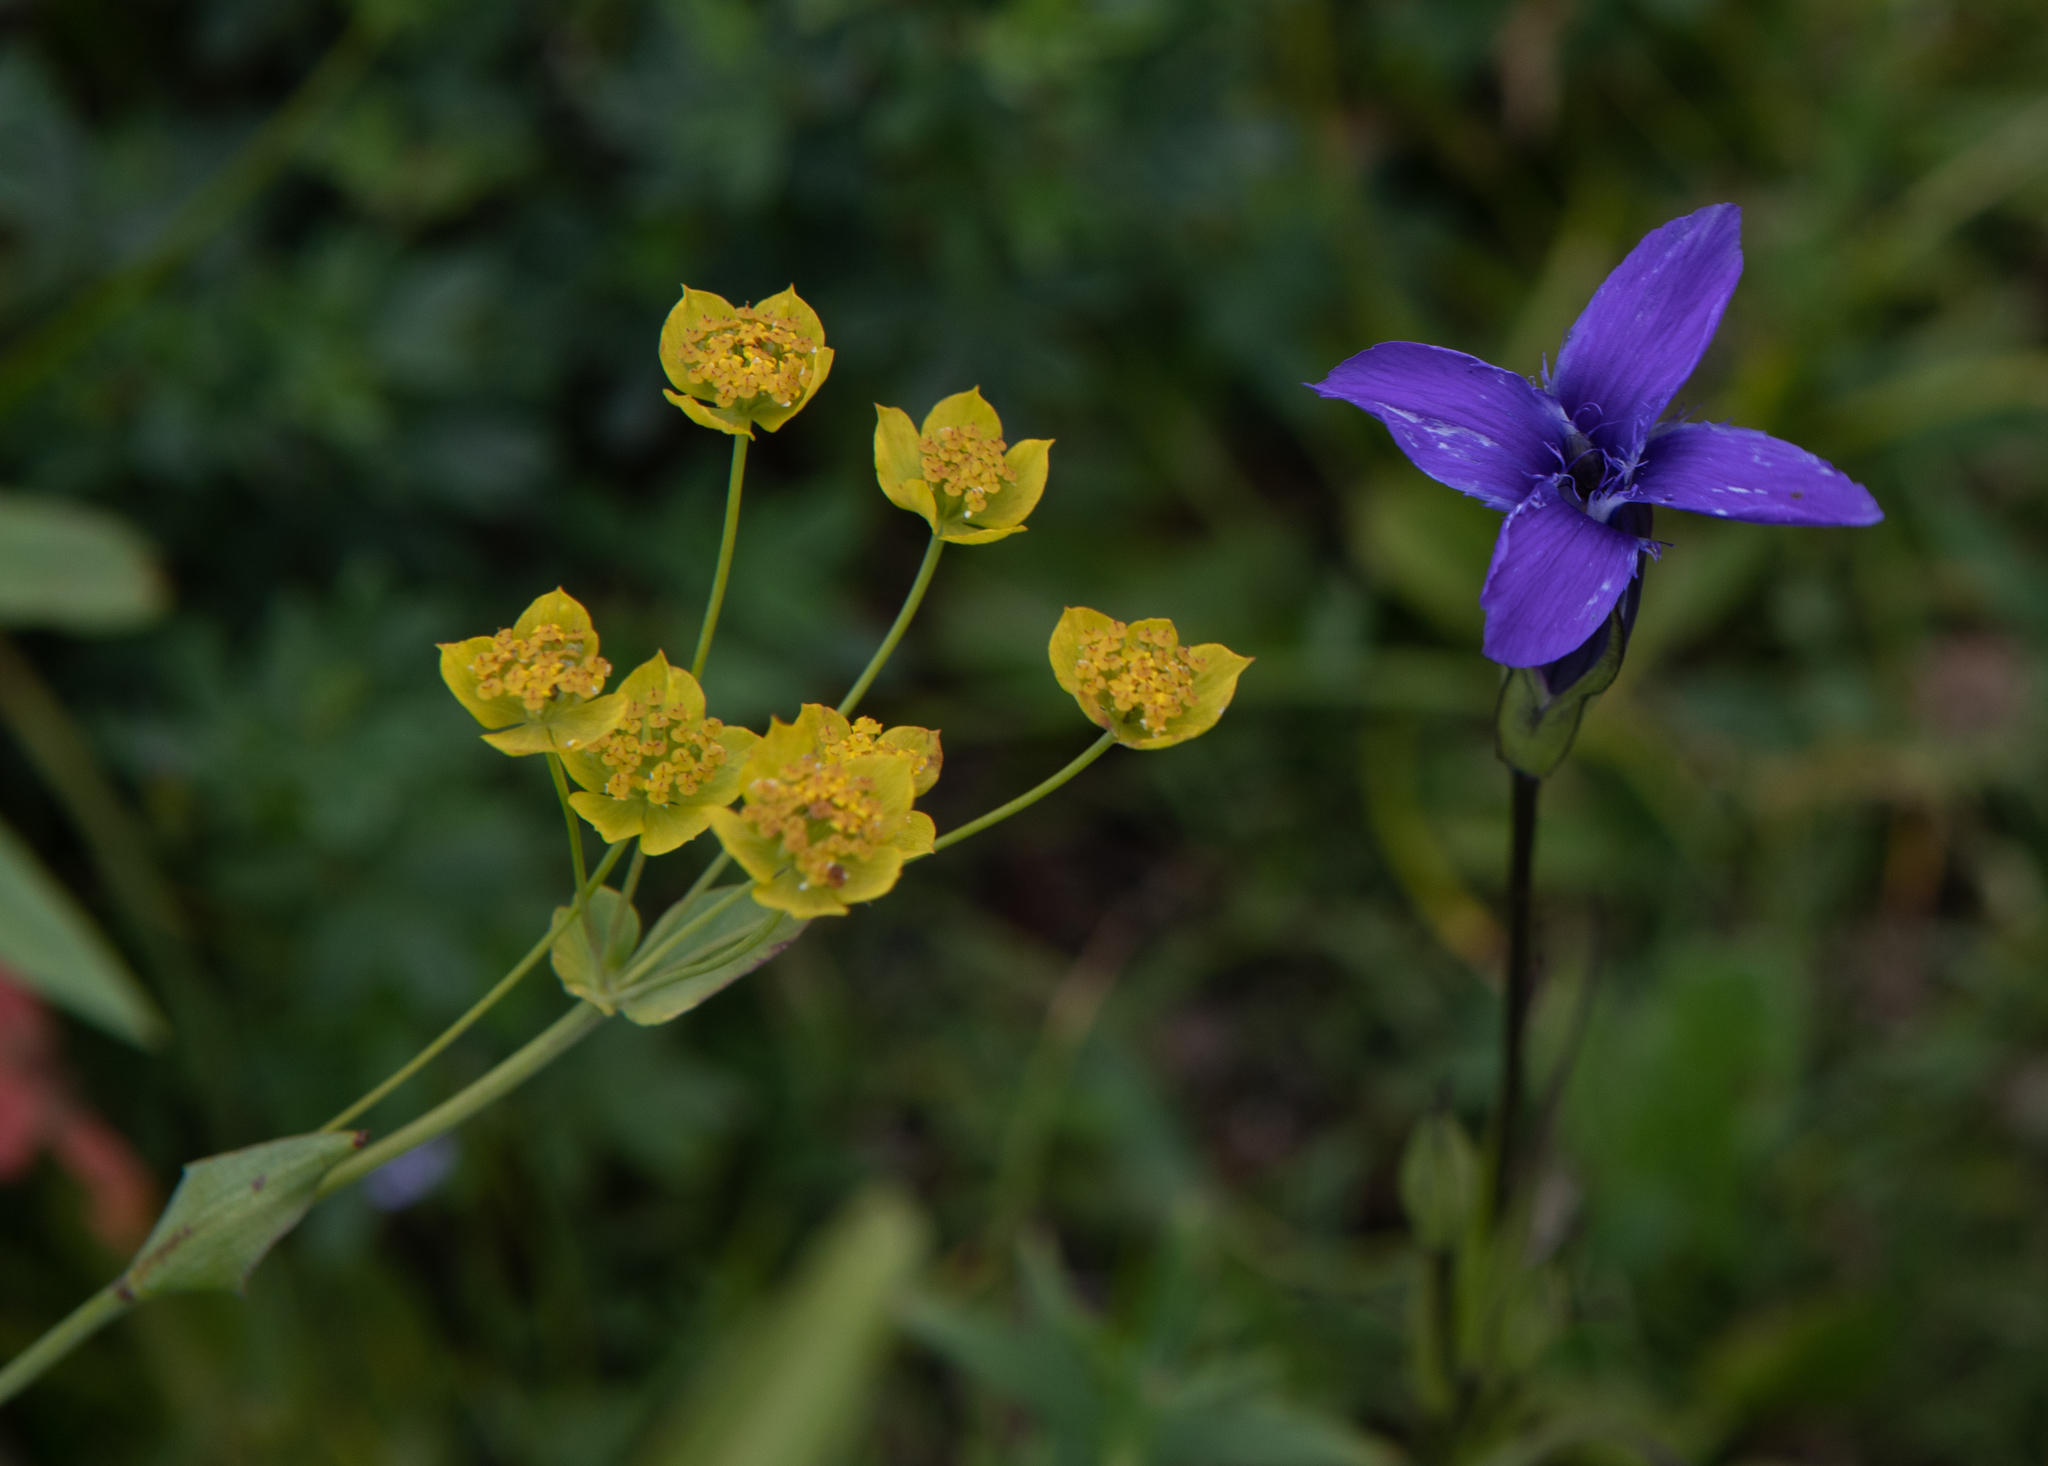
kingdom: Plantae
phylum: Tracheophyta
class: Magnoliopsida
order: Apiales
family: Apiaceae
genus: Bupleurum
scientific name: Bupleurum aureum
